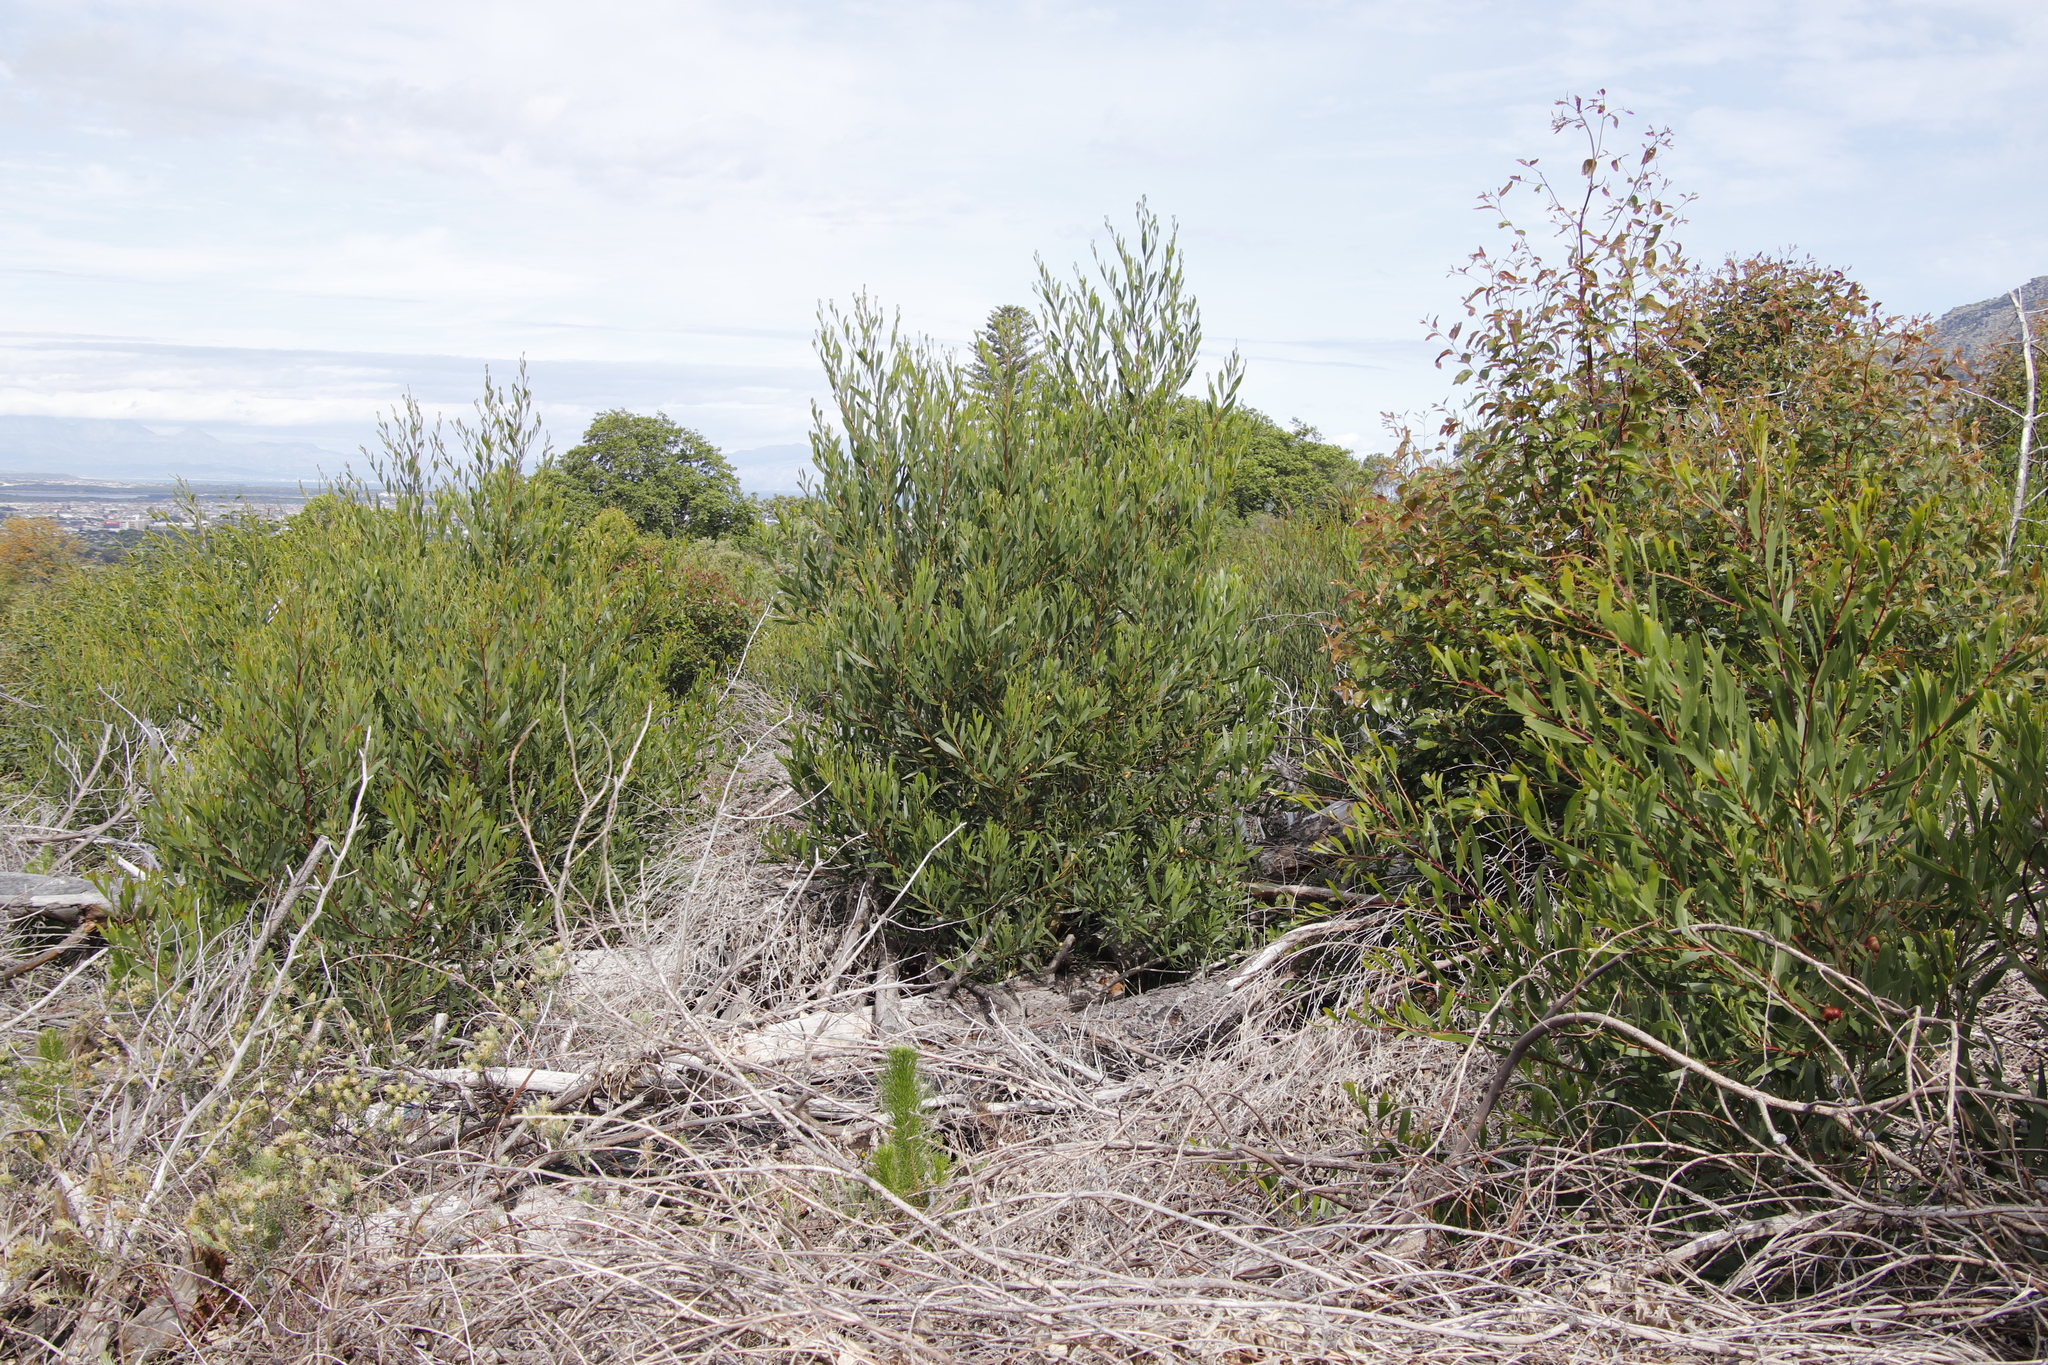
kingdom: Plantae
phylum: Tracheophyta
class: Magnoliopsida
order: Fabales
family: Fabaceae
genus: Acacia
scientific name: Acacia longifolia
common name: Sydney golden wattle
